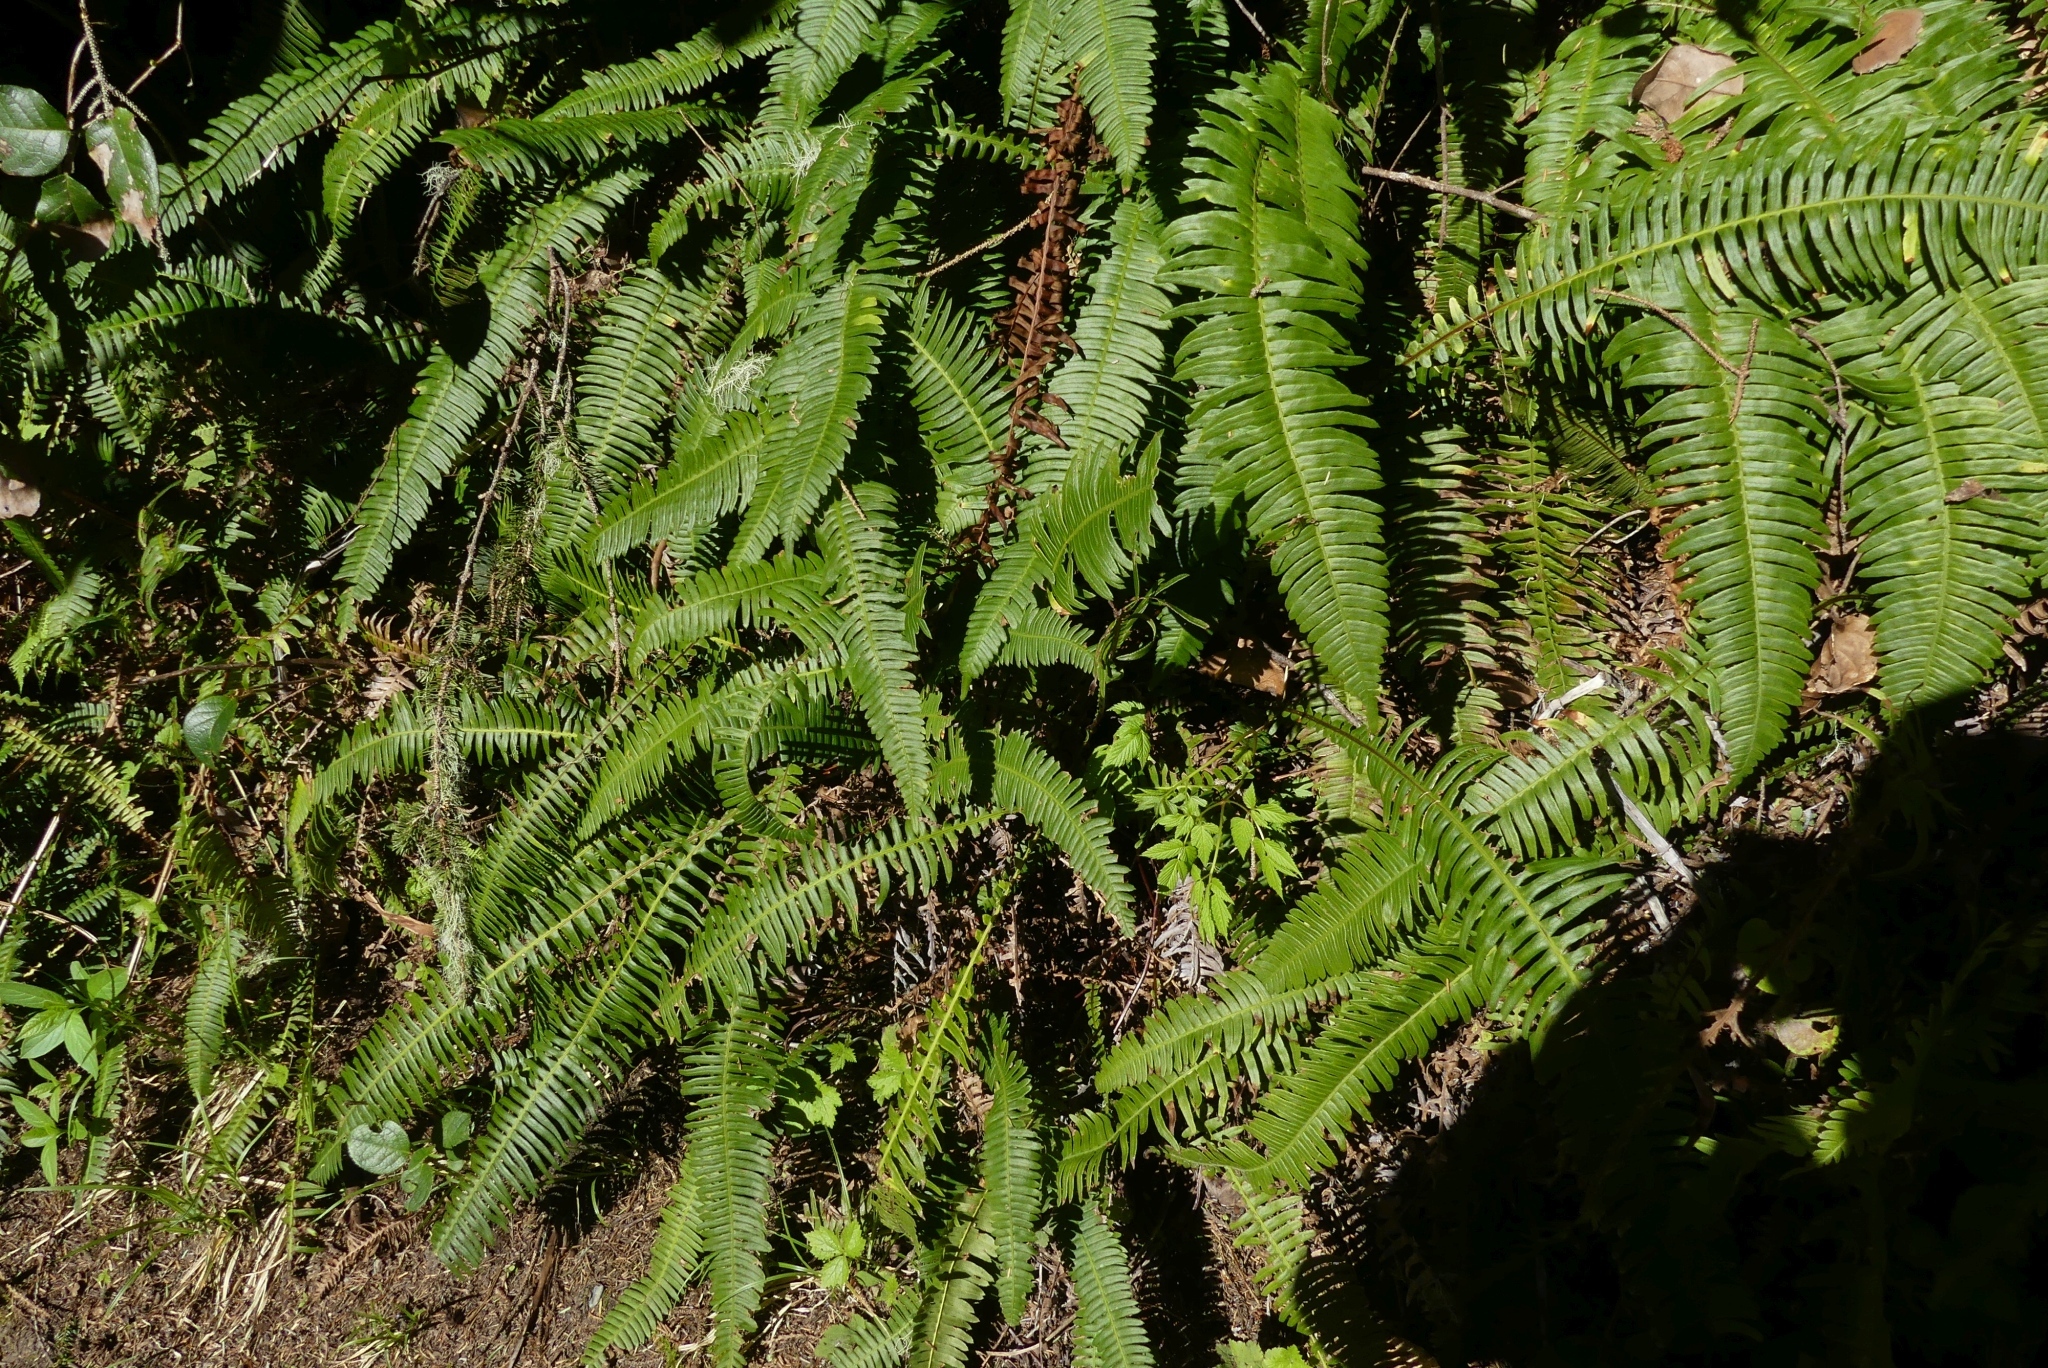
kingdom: Plantae
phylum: Tracheophyta
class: Polypodiopsida
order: Polypodiales
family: Blechnaceae
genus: Struthiopteris
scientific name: Struthiopteris spicant
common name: Deer fern
